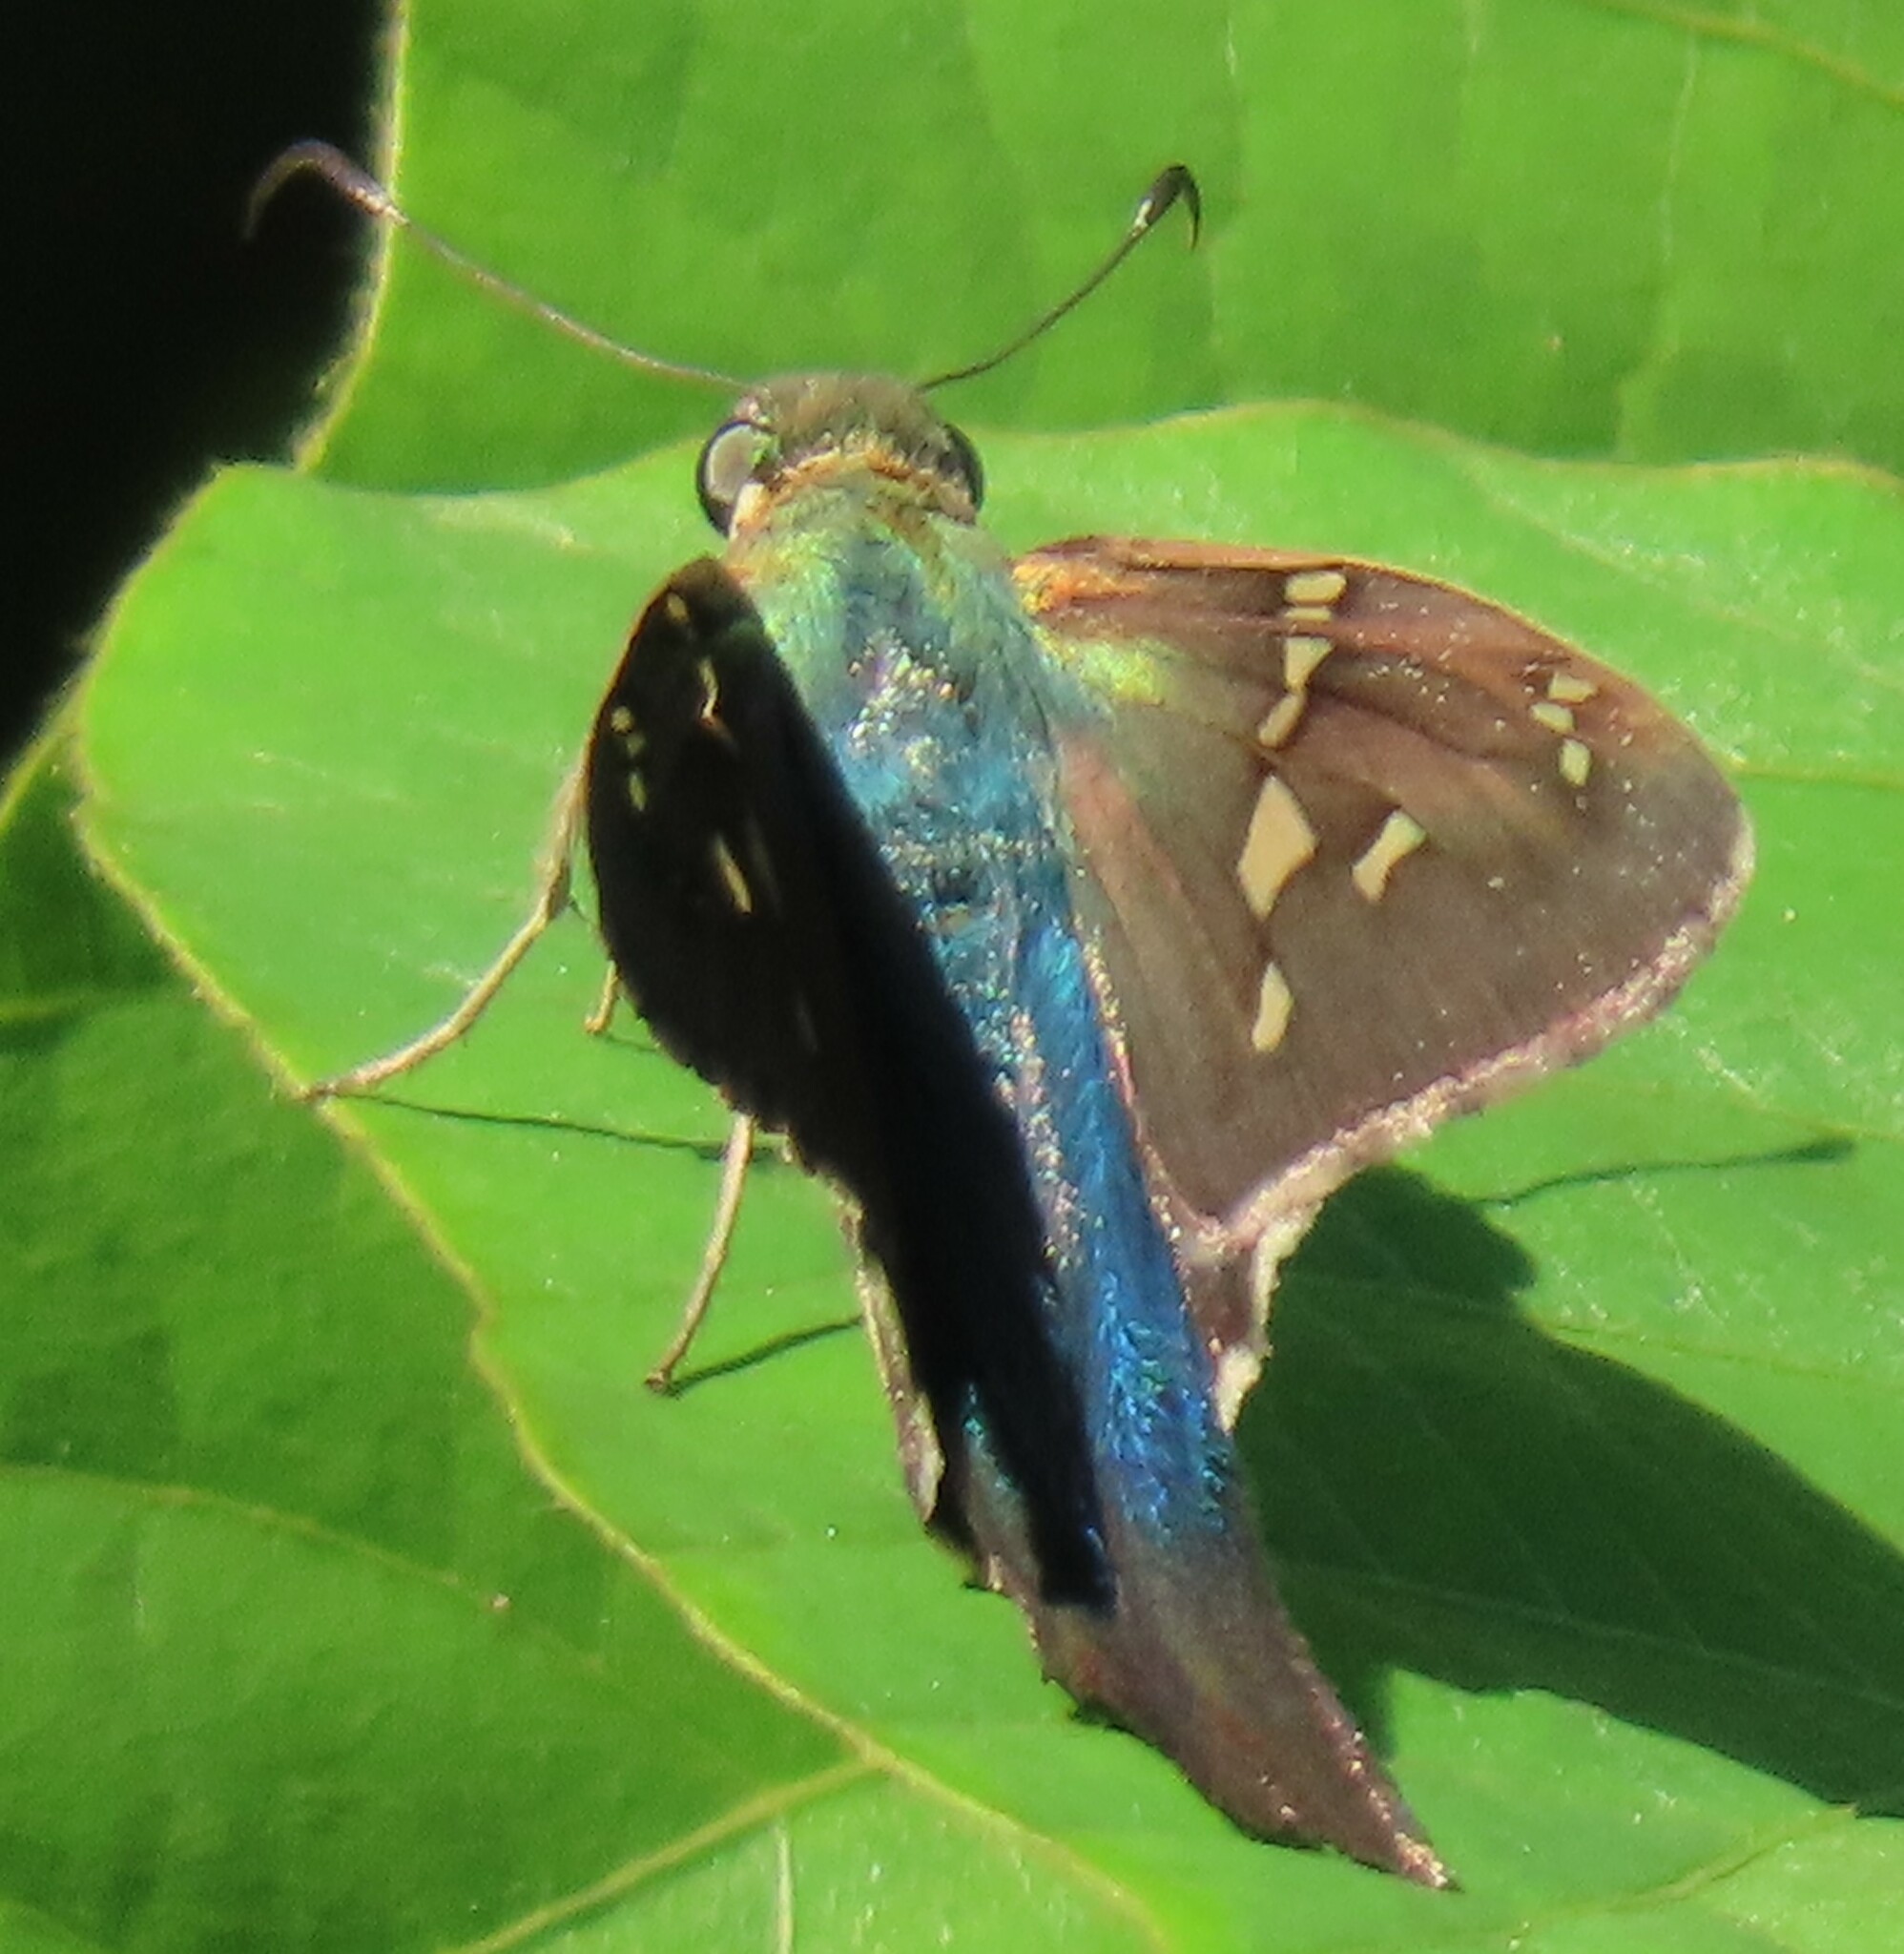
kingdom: Animalia
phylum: Arthropoda
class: Insecta
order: Lepidoptera
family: Hesperiidae
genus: Urbanus
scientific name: Urbanus proteus
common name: Long-tailed skipper
